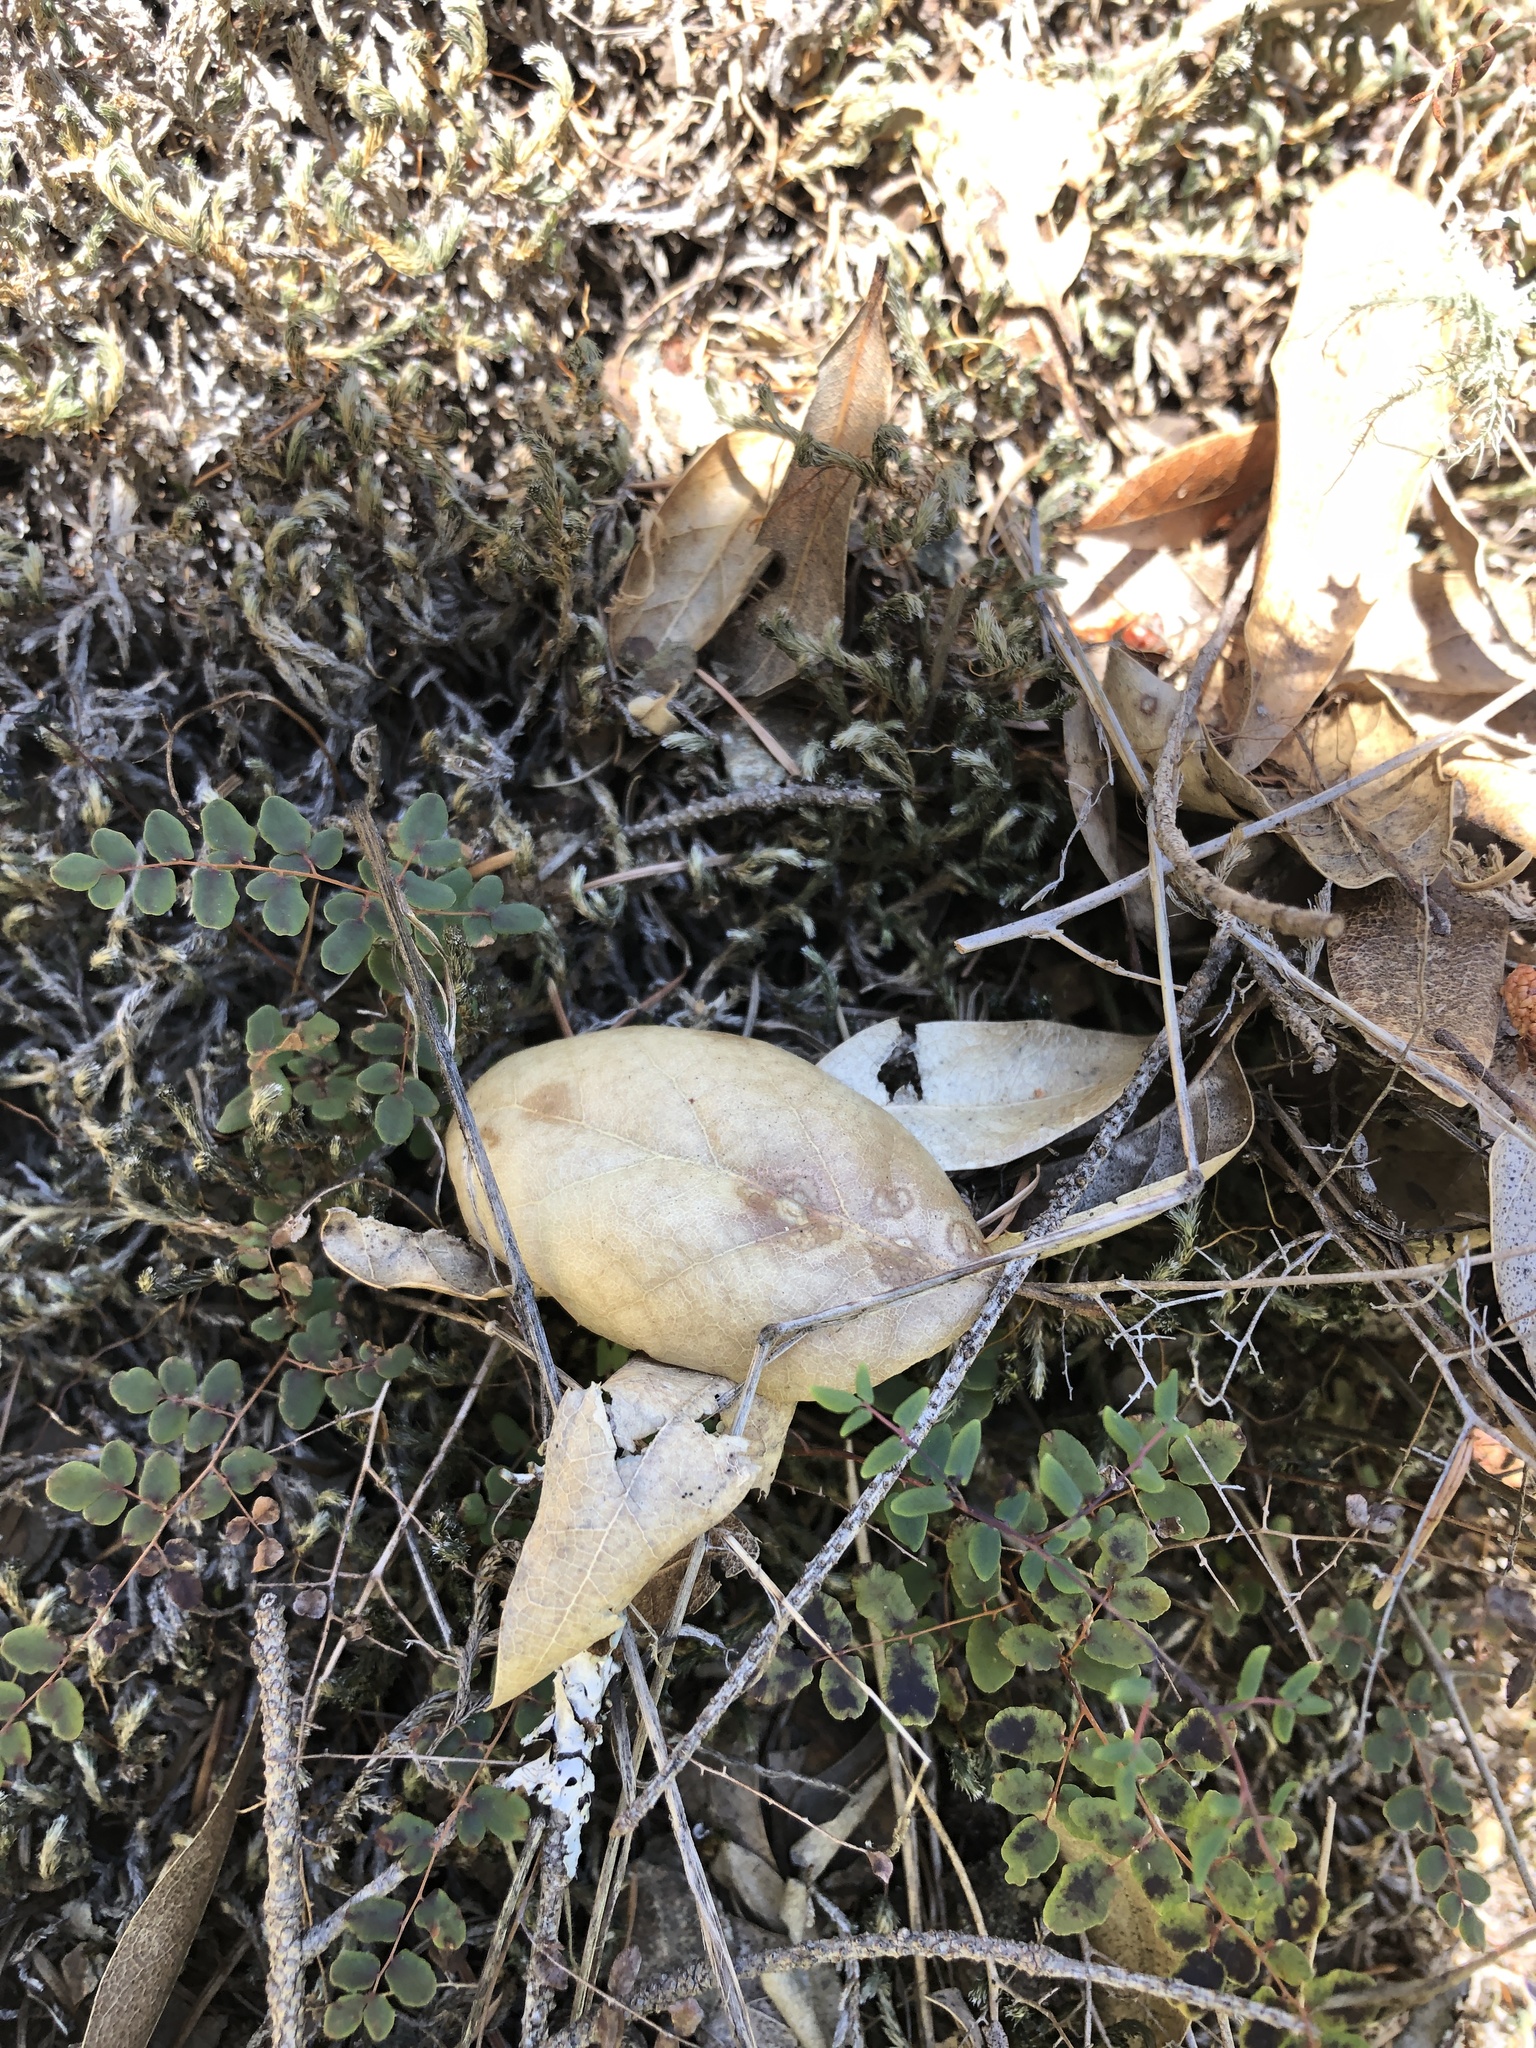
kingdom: Plantae
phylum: Tracheophyta
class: Polypodiopsida
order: Polypodiales
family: Pteridaceae
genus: Pellaea
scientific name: Pellaea andromedifolia
